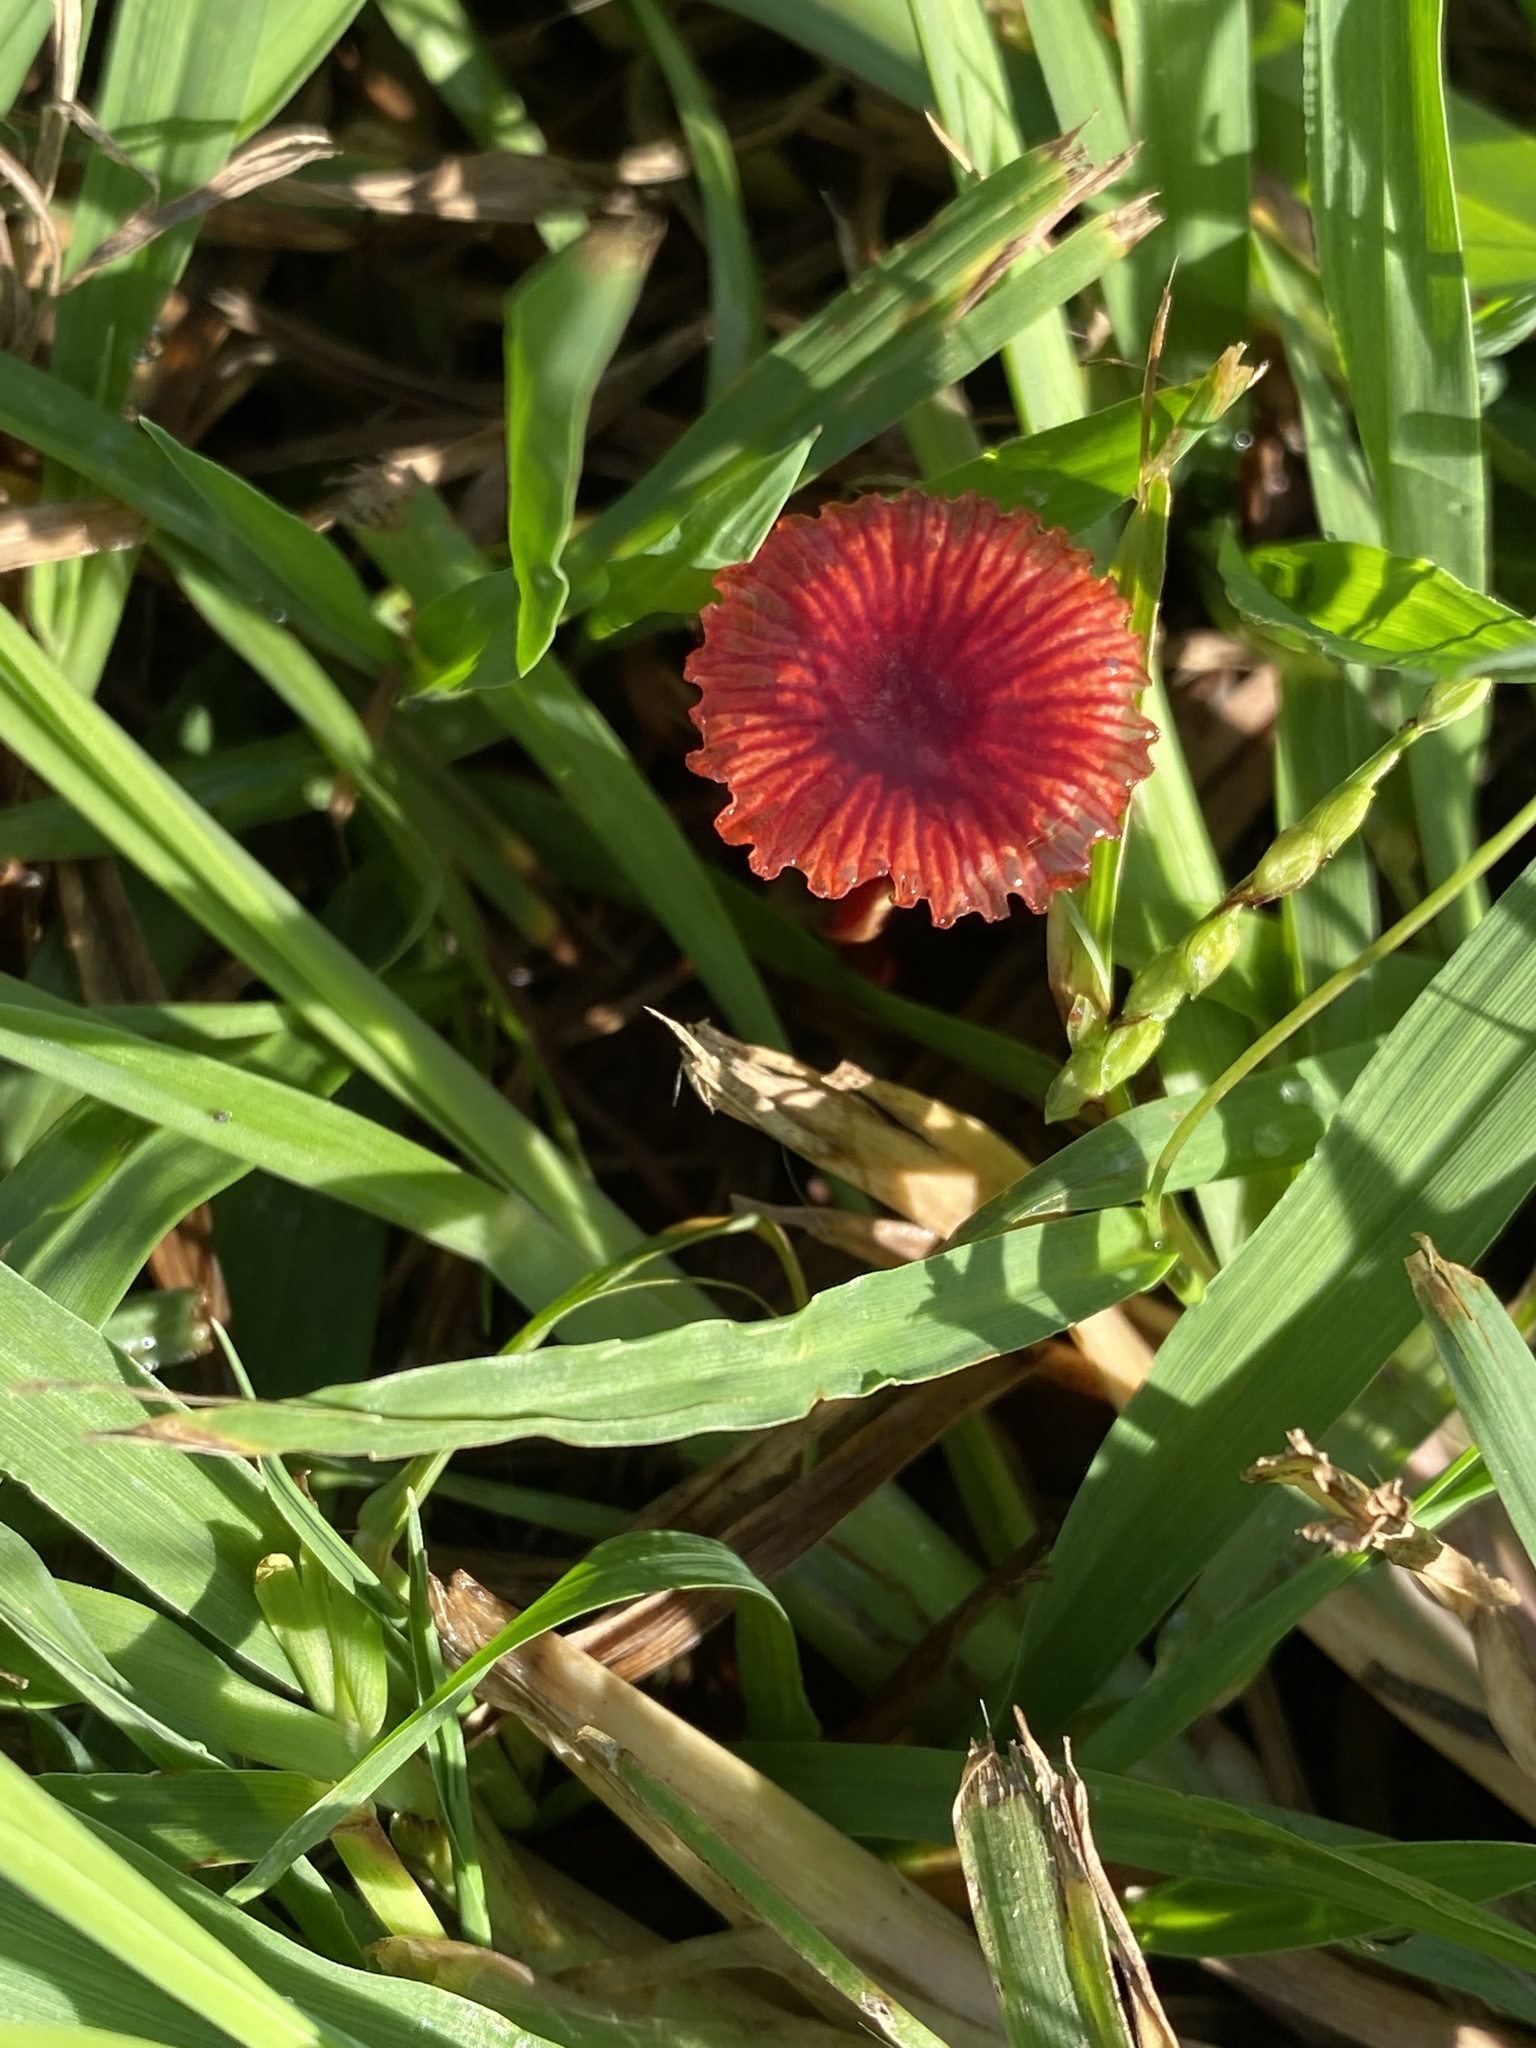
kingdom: Fungi
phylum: Basidiomycota
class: Agaricomycetes
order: Agaricales
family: Mycenaceae
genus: Cruentomycena
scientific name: Cruentomycena viscidocruenta
